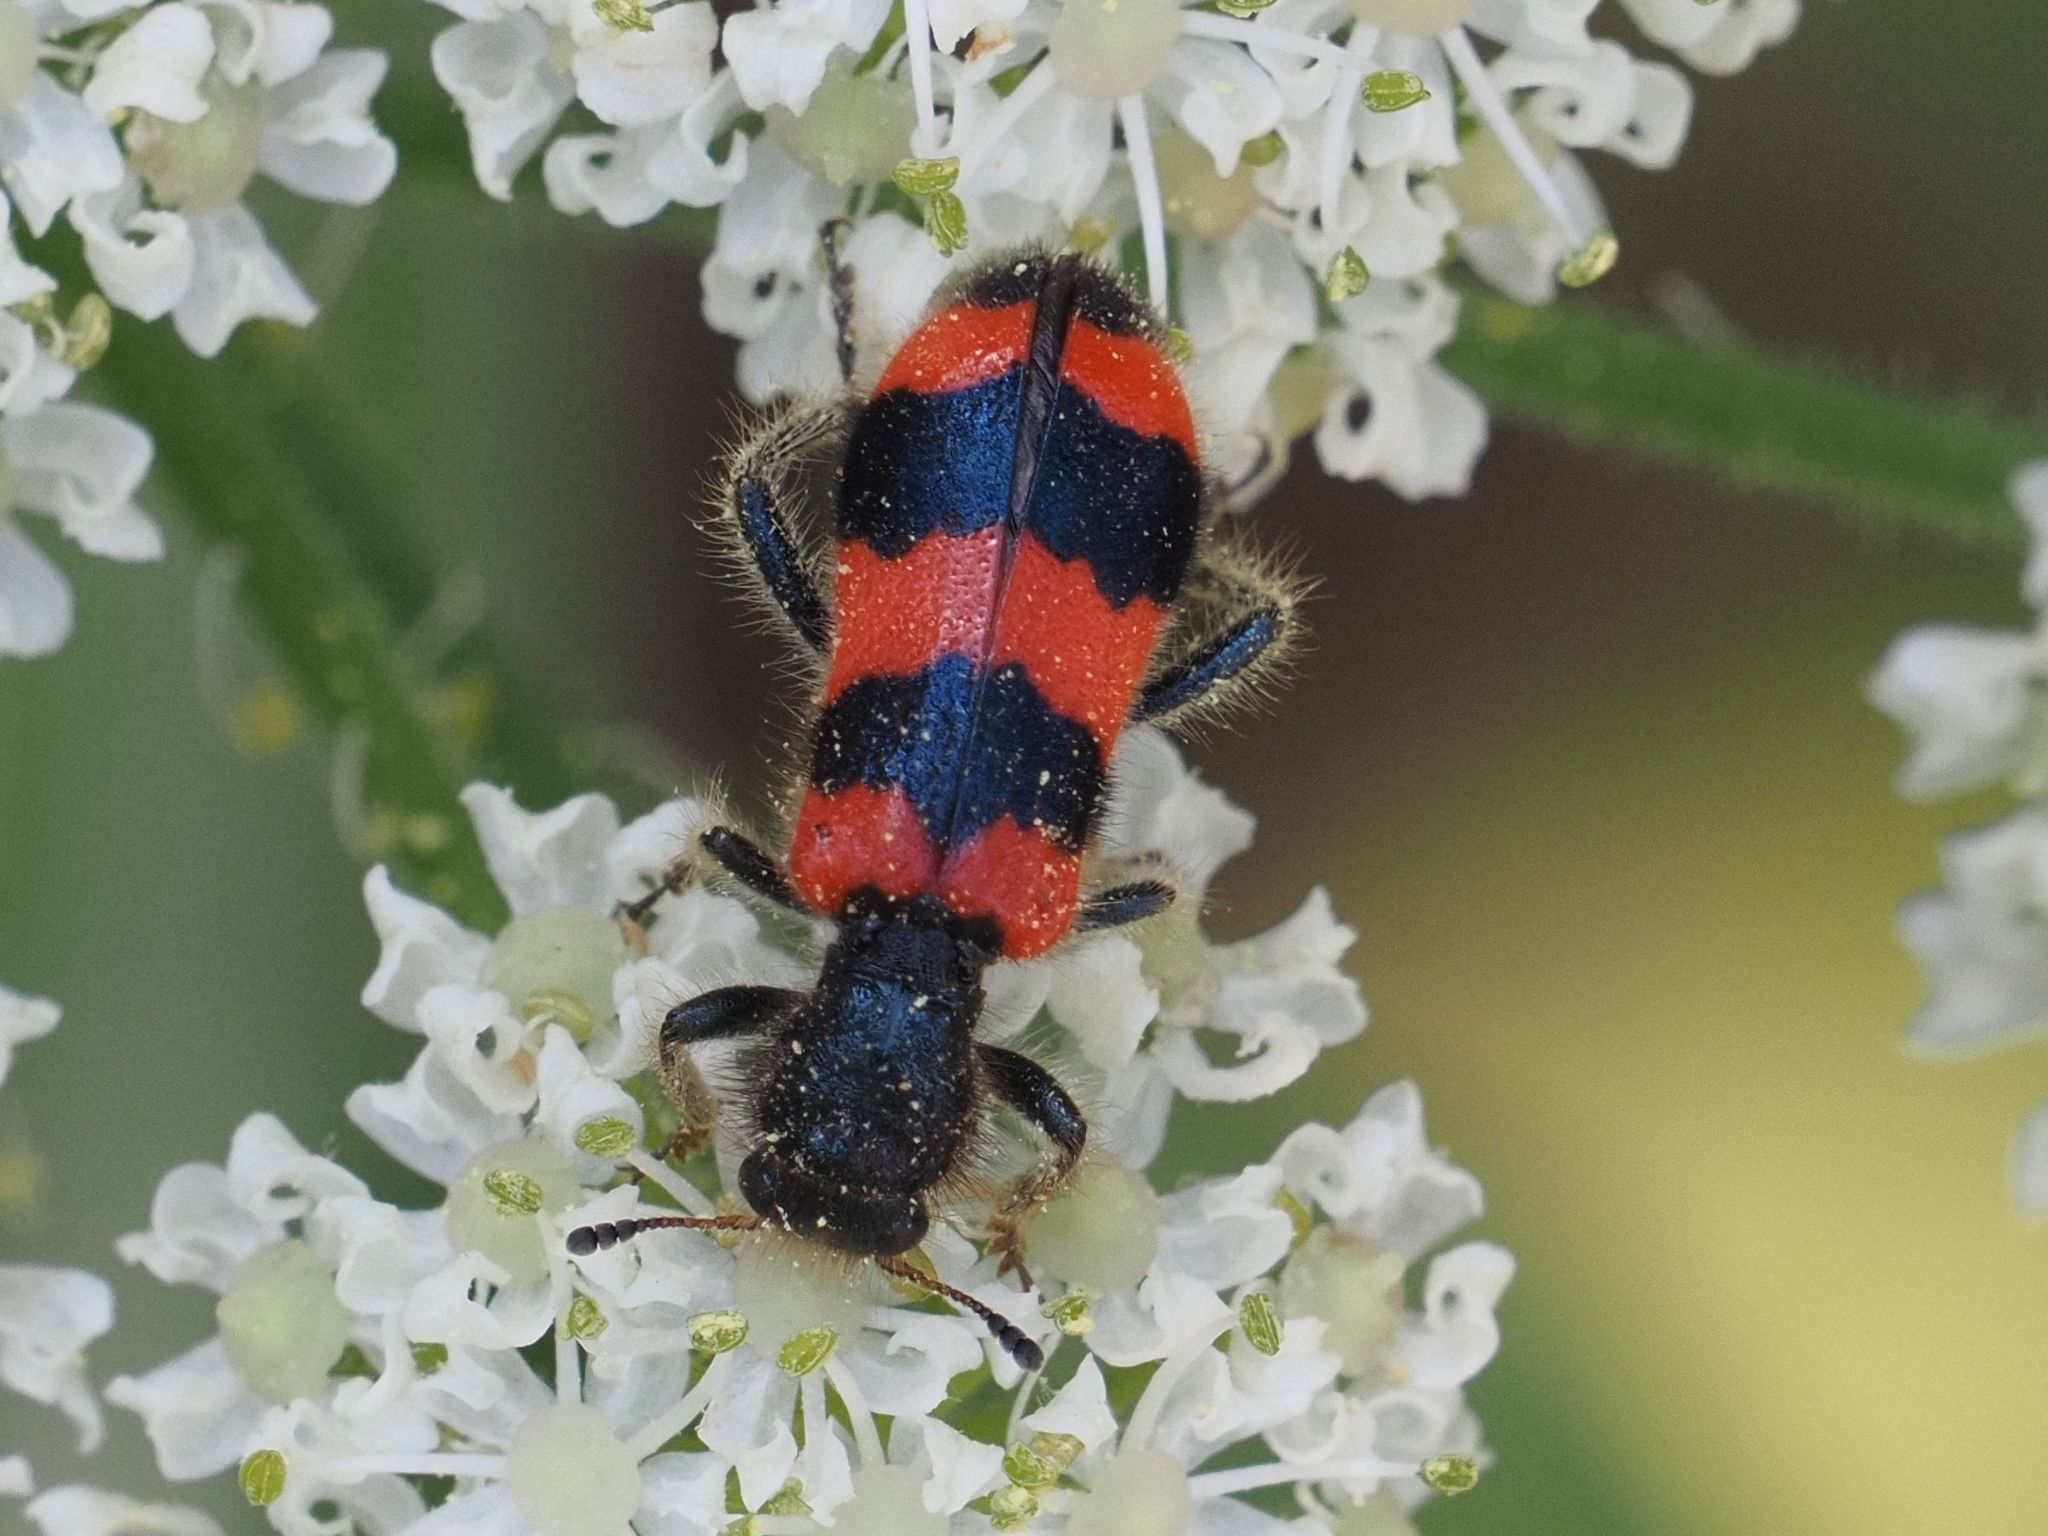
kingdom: Animalia
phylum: Arthropoda
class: Insecta
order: Coleoptera
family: Cleridae
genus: Trichodes
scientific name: Trichodes apiarius
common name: Bee-eating beetle
